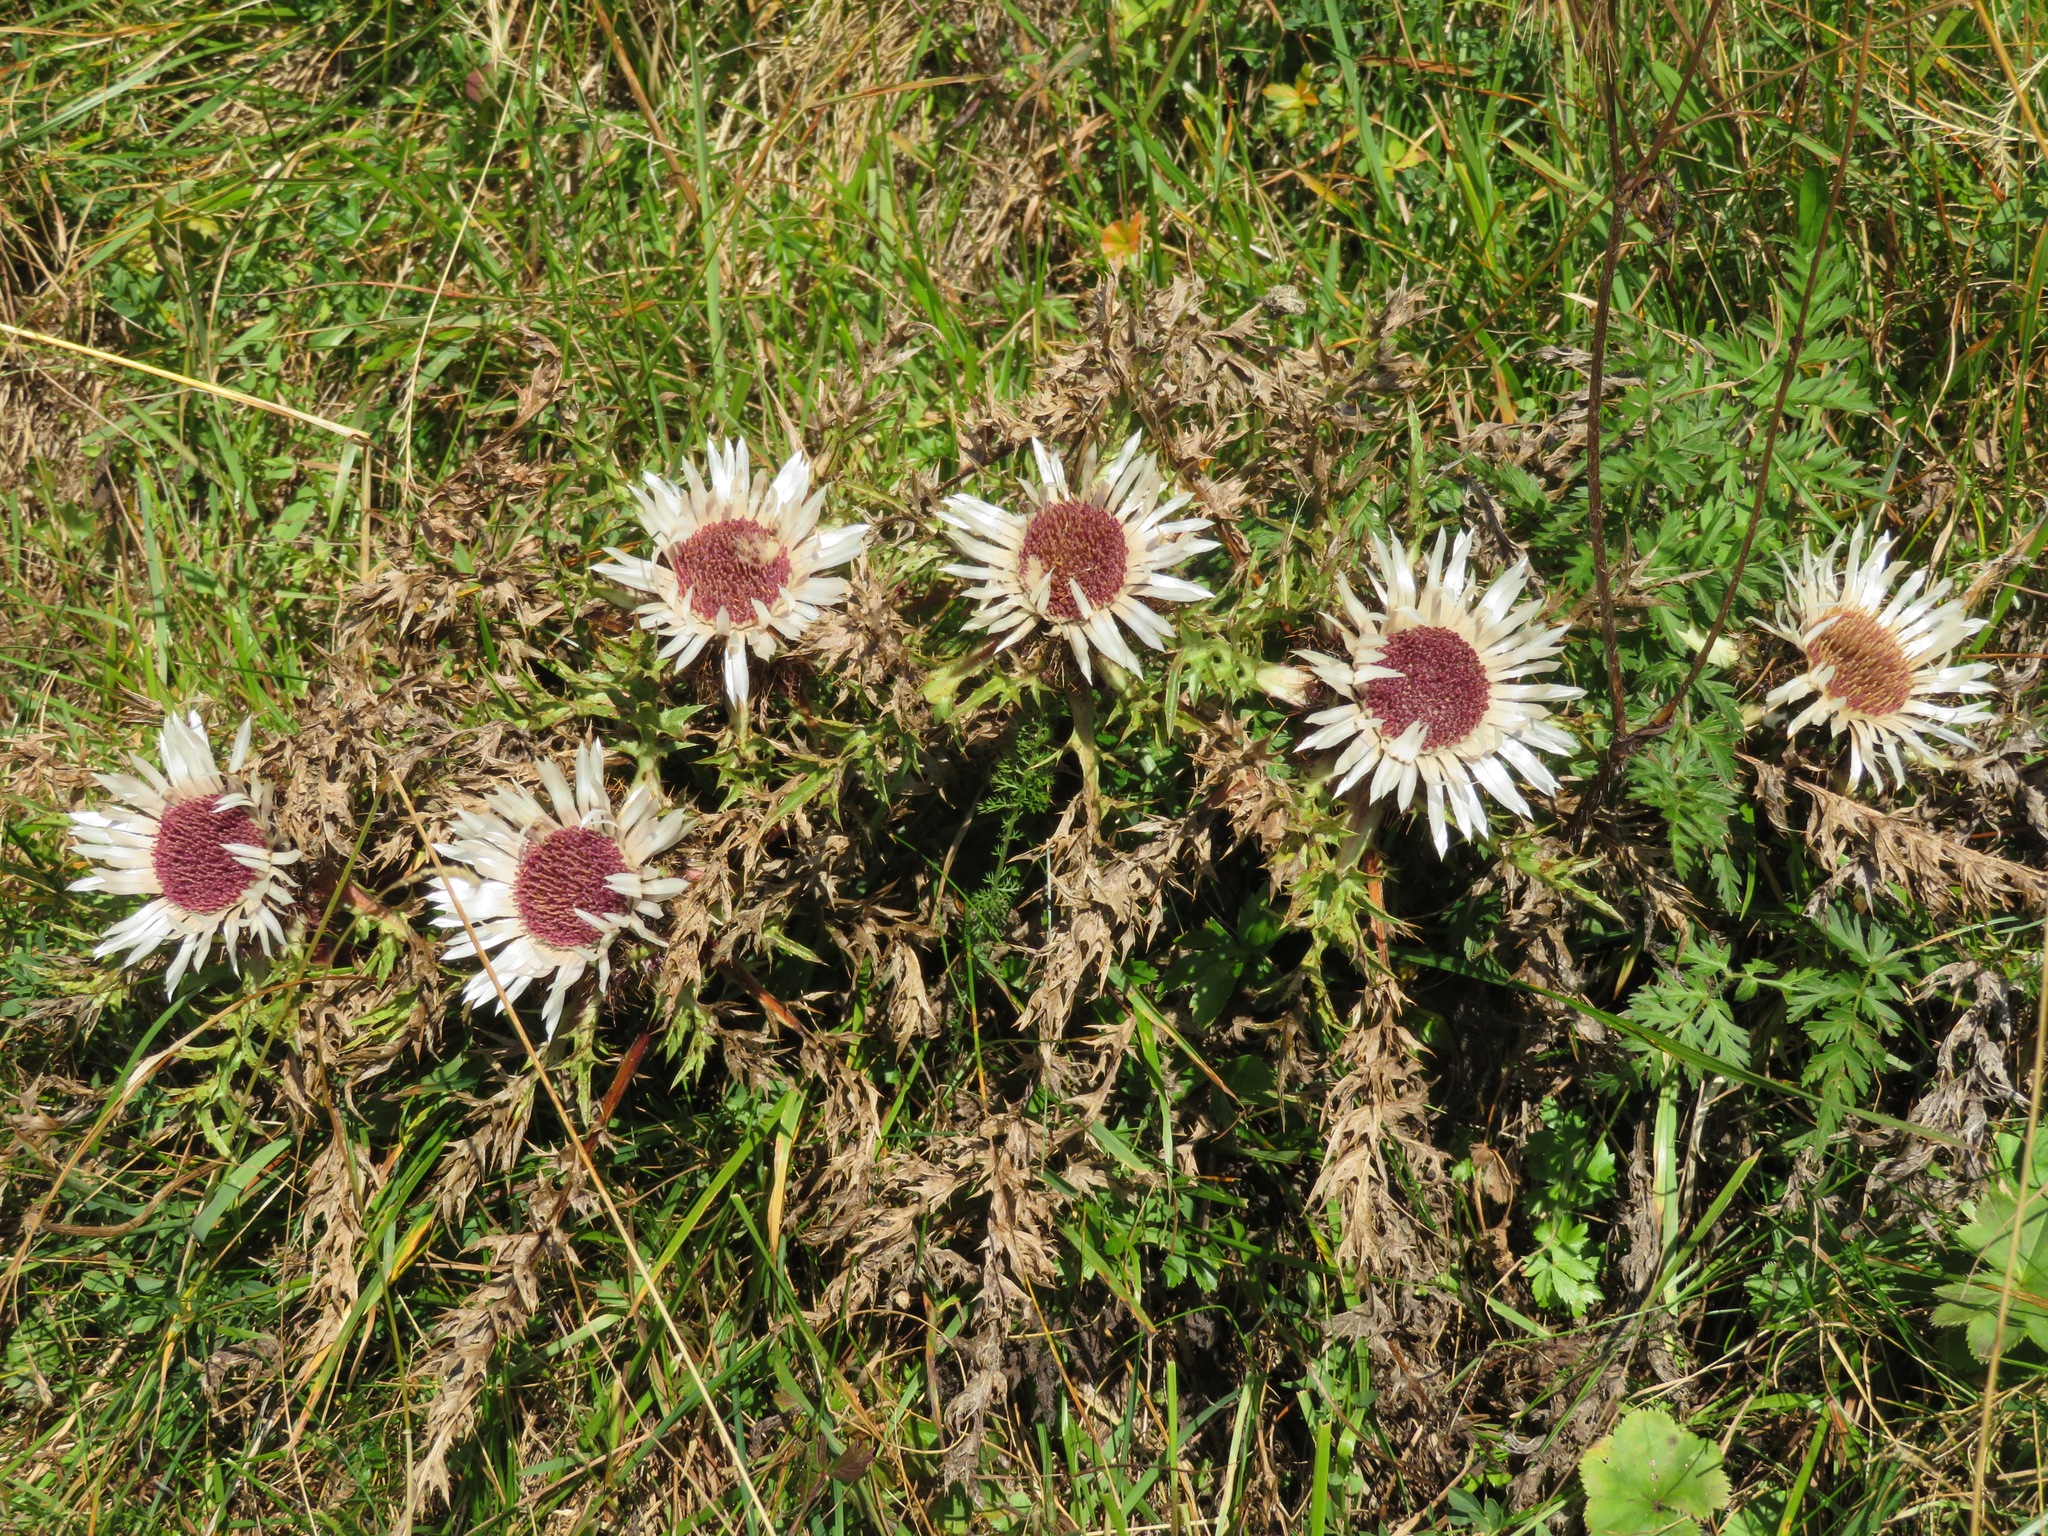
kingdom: Plantae
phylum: Tracheophyta
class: Magnoliopsida
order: Asterales
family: Asteraceae
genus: Carlina
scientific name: Carlina acaulis
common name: Stemless carline thistle
